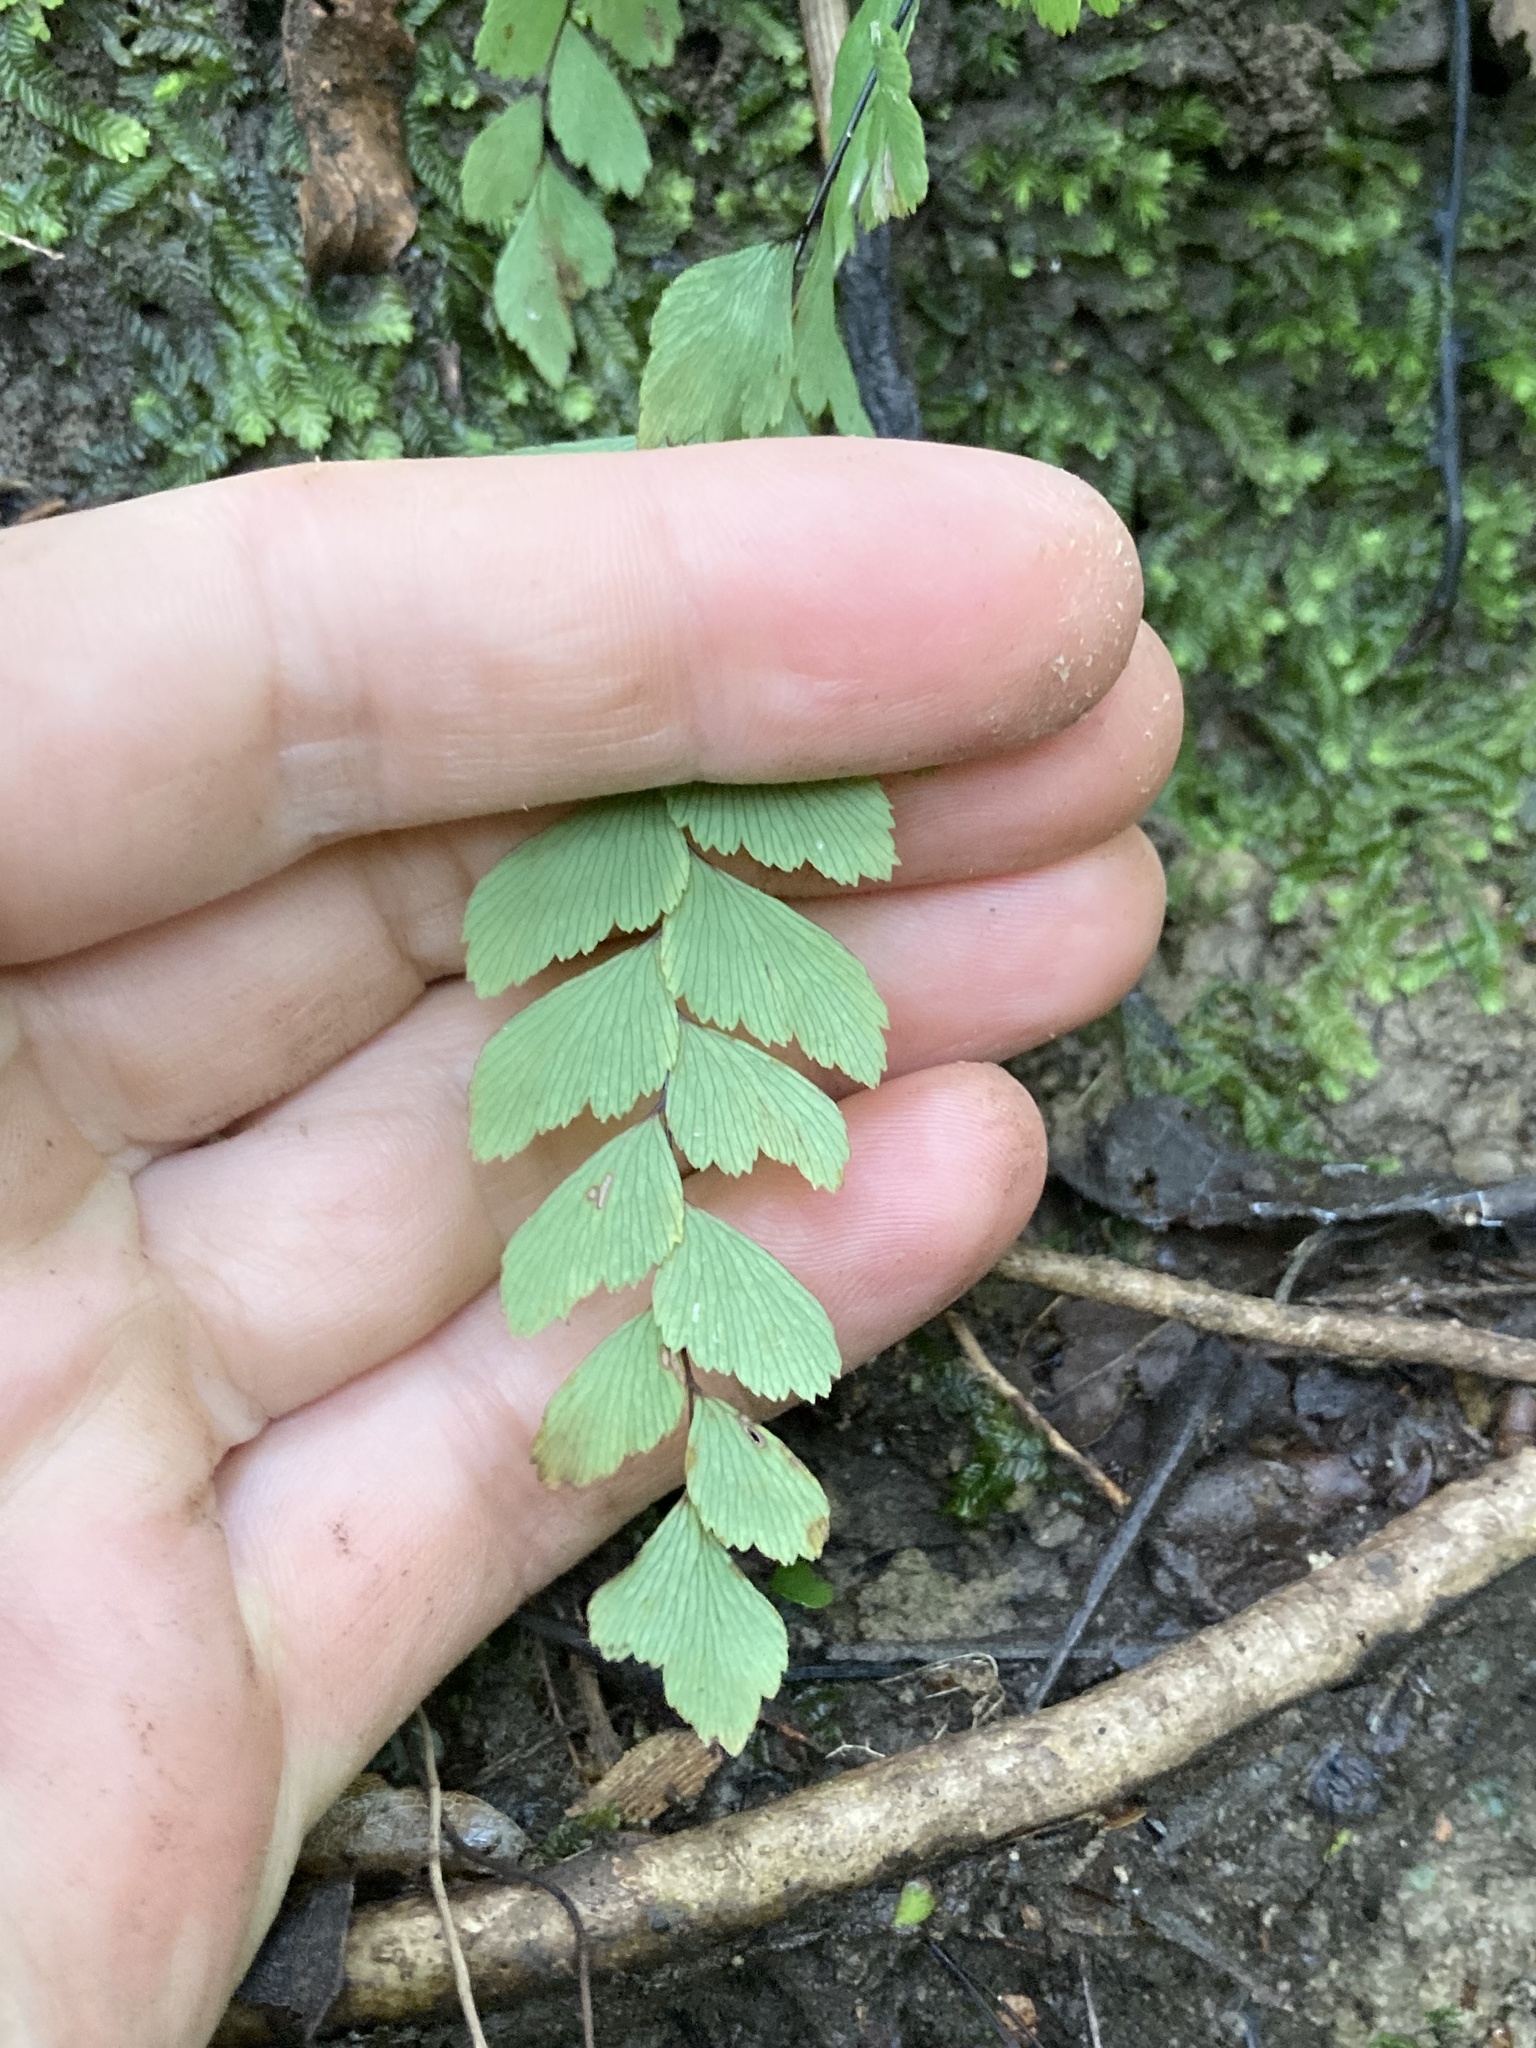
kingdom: Plantae
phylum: Tracheophyta
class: Polypodiopsida
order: Polypodiales
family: Pteridaceae
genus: Adiantum
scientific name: Adiantum cunninghamii
